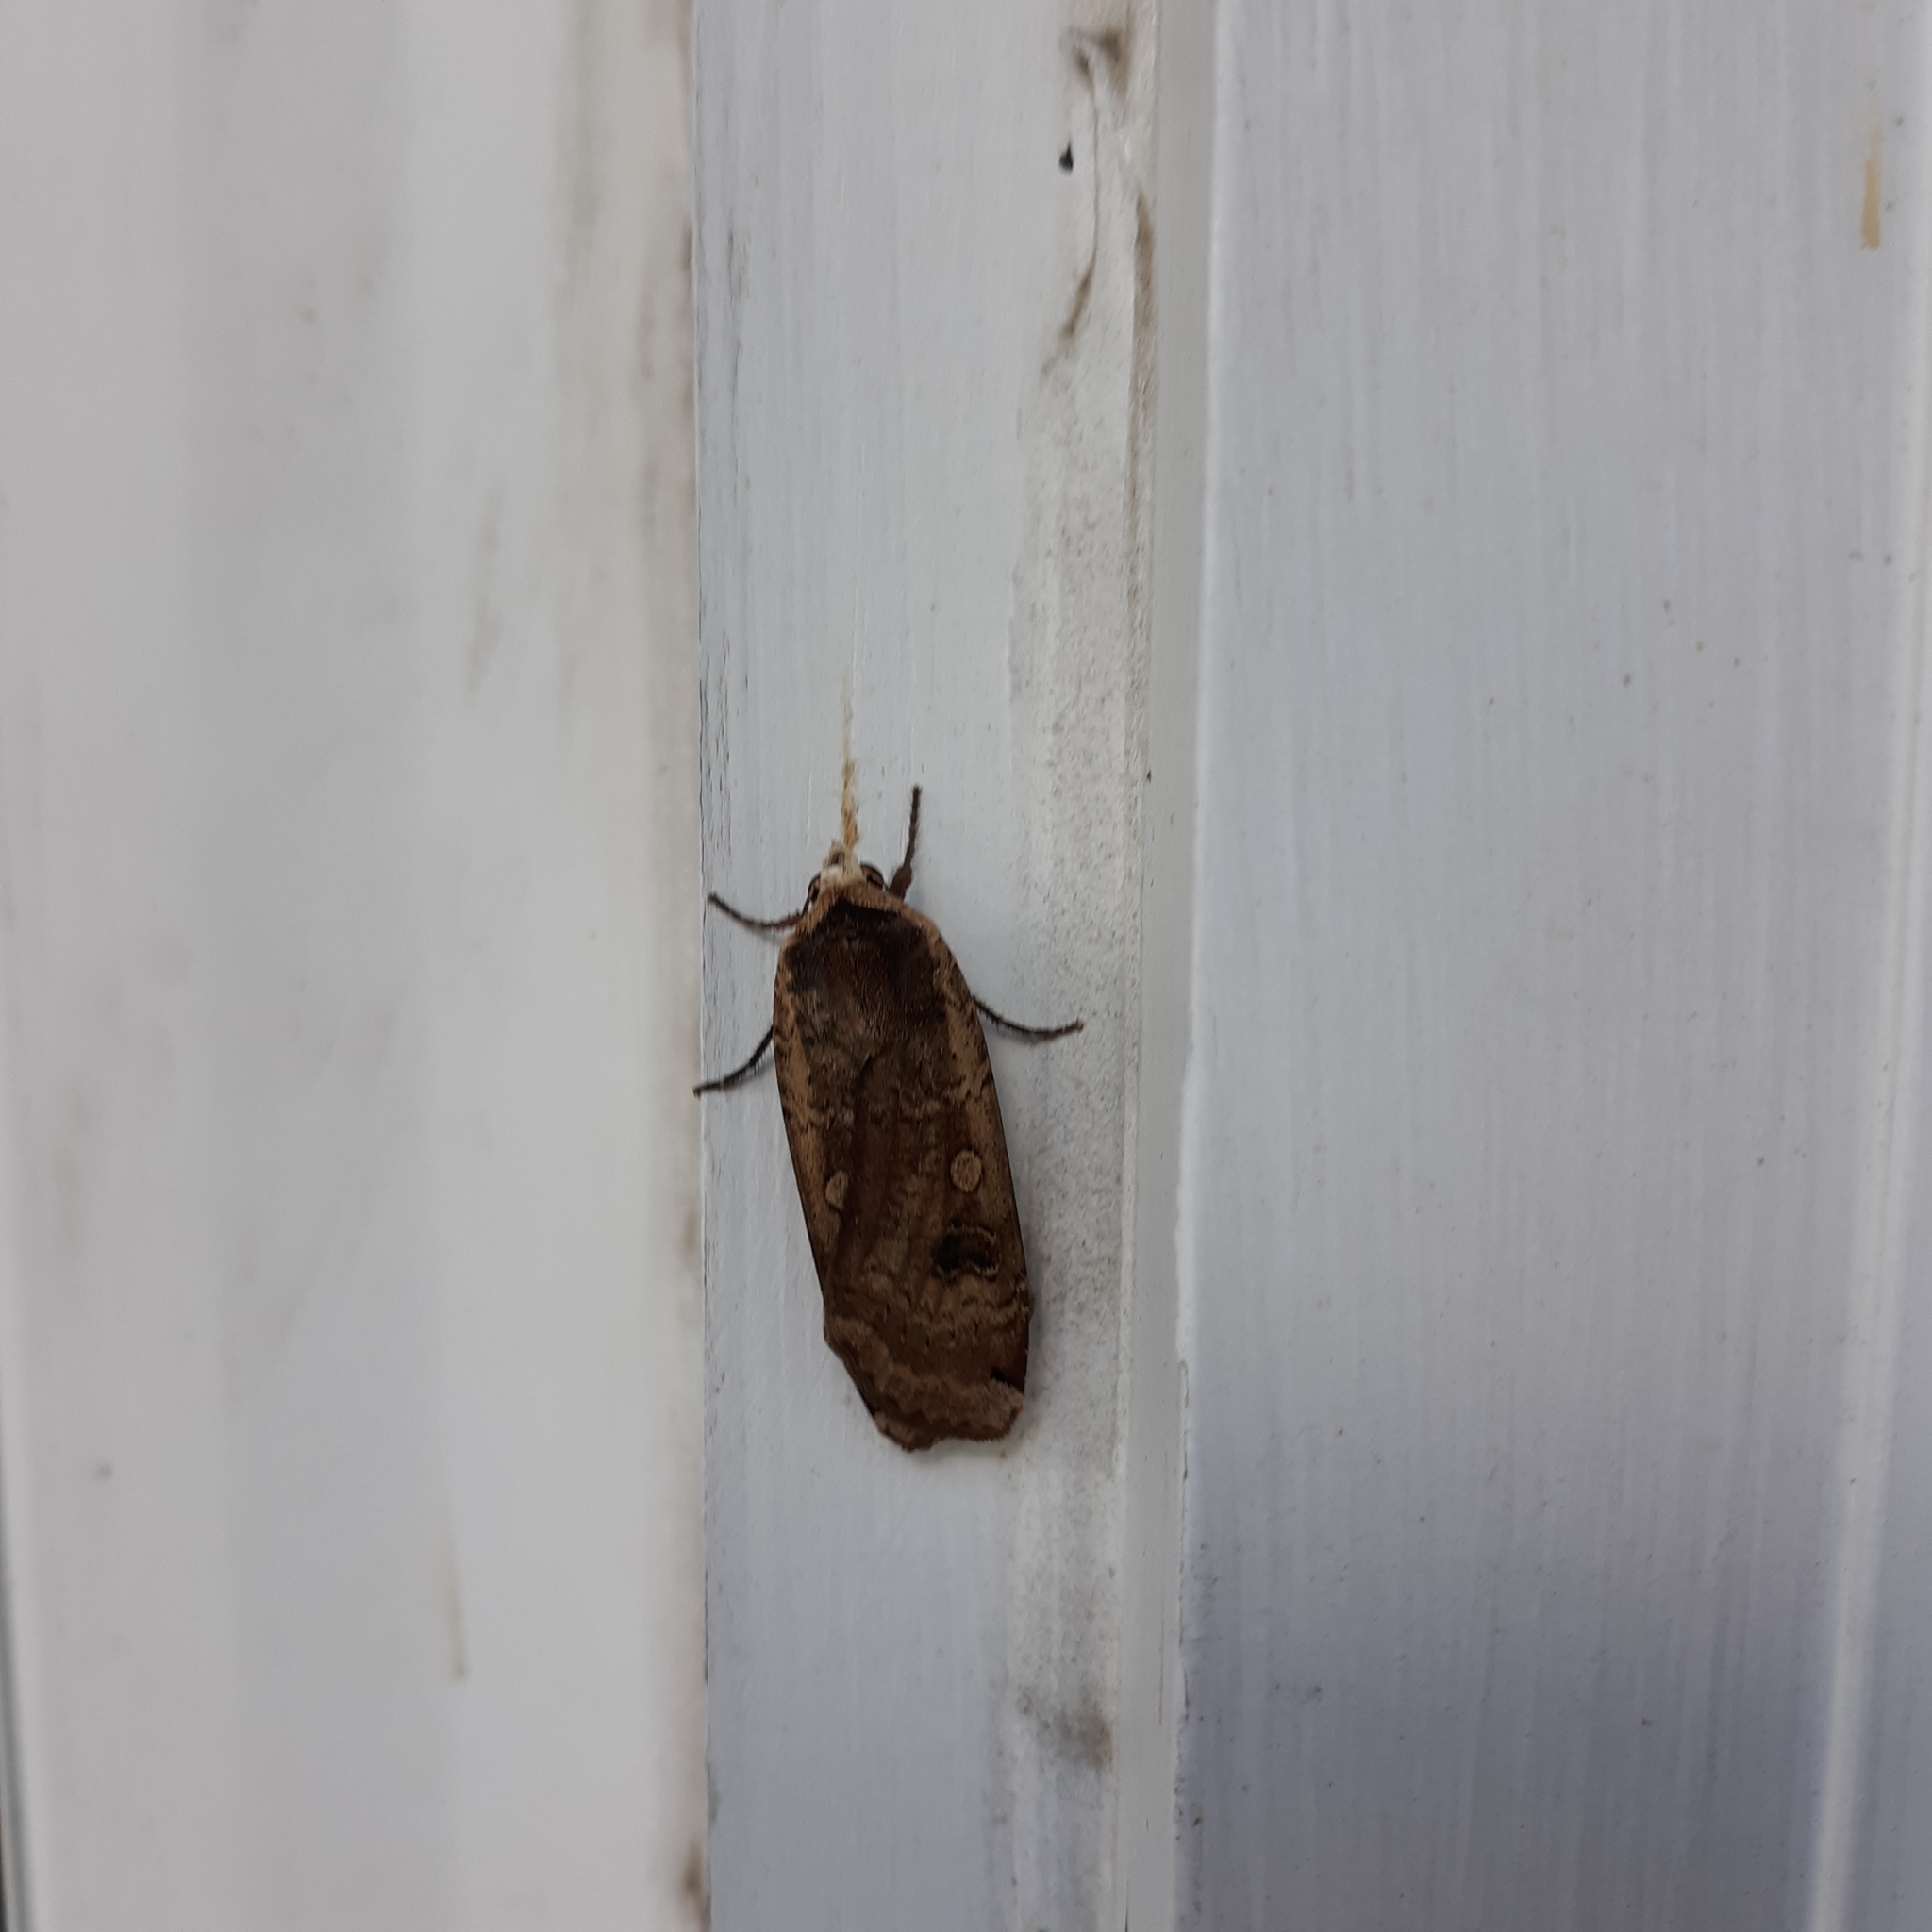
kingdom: Animalia
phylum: Arthropoda
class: Insecta
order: Lepidoptera
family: Noctuidae
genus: Noctua
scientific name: Noctua pronuba
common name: Large yellow underwing
